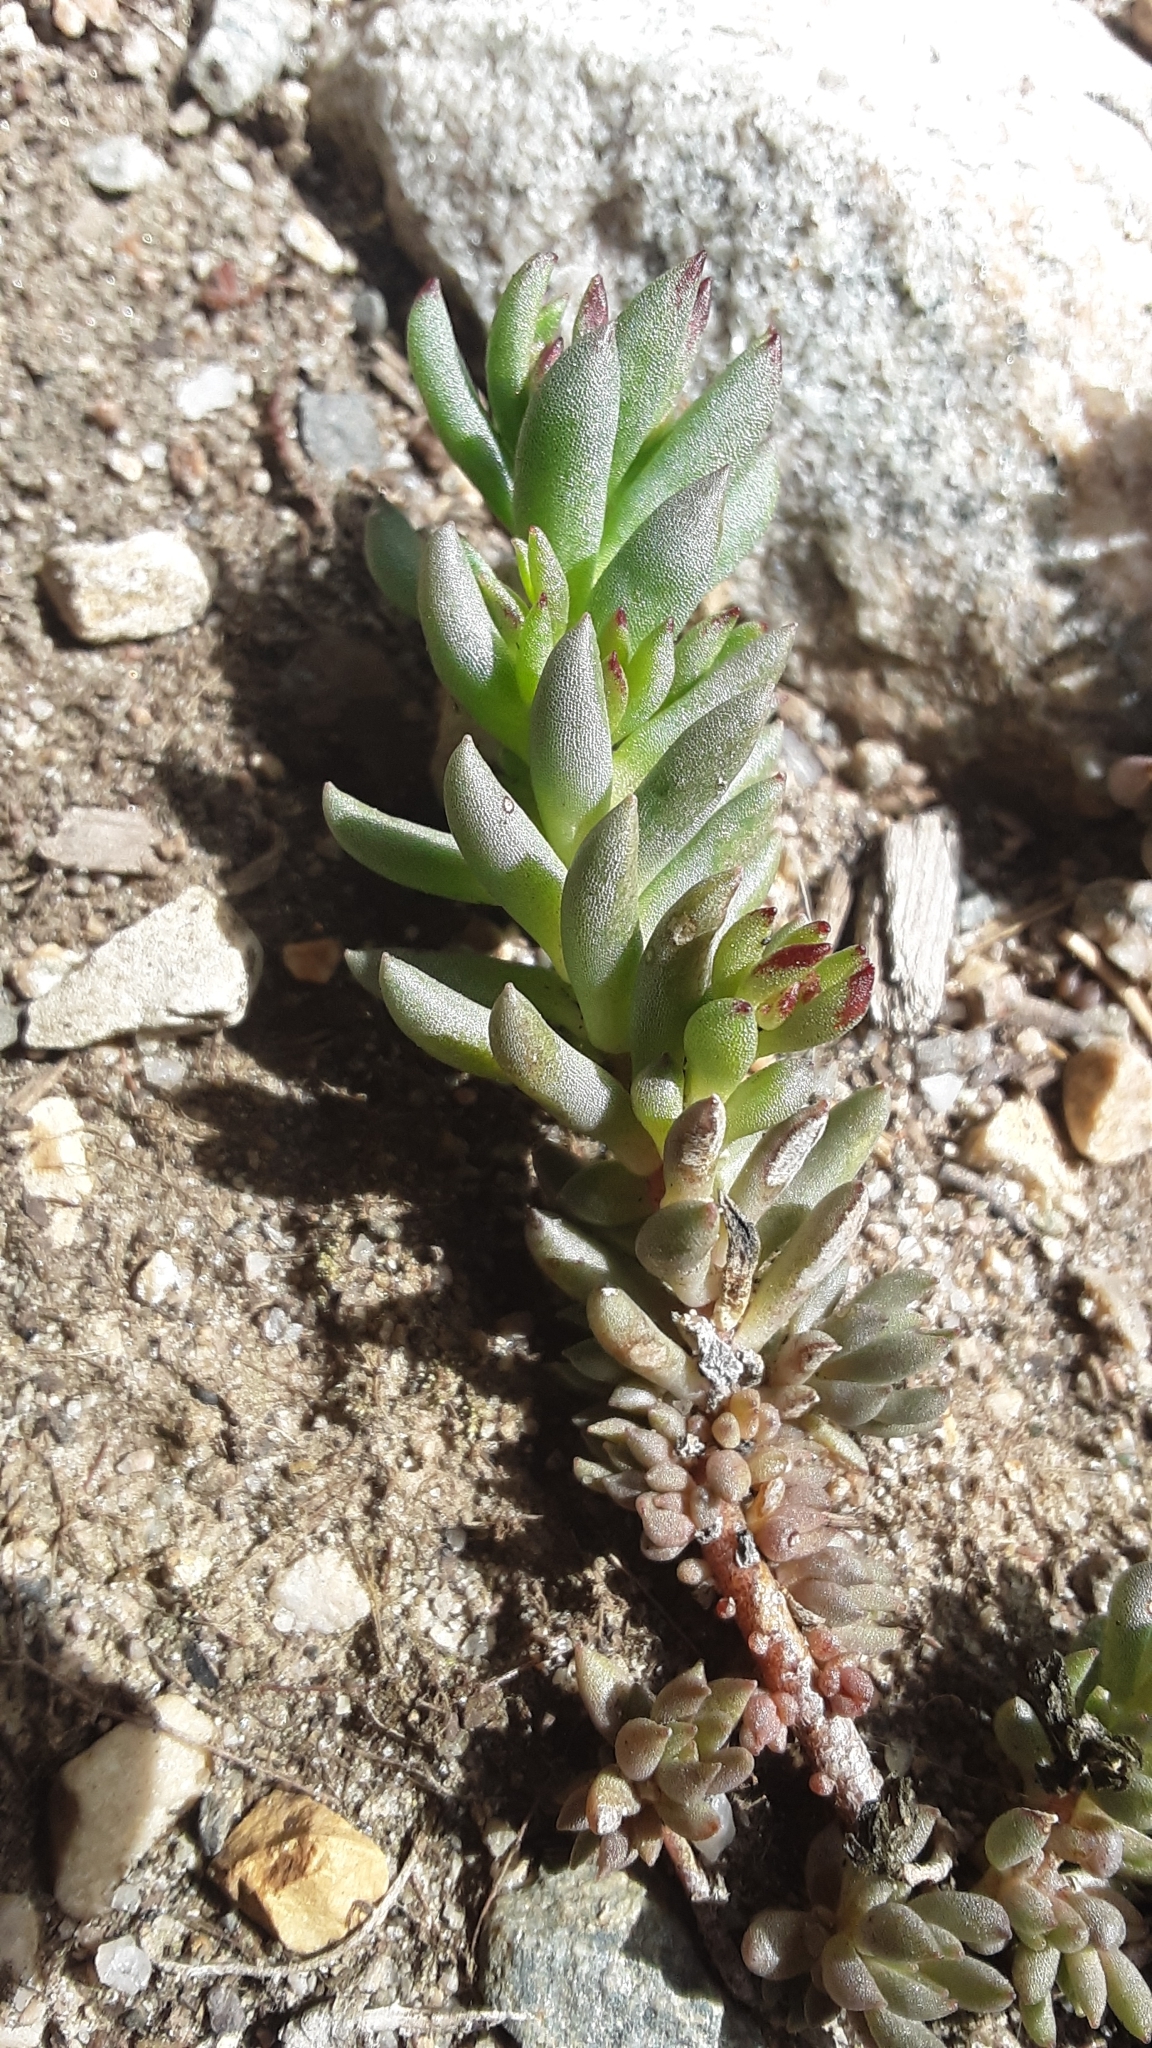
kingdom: Plantae
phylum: Tracheophyta
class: Magnoliopsida
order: Saxifragales
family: Crassulaceae
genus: Sedum
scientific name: Sedum lanceolatum
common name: Common stonecrop
